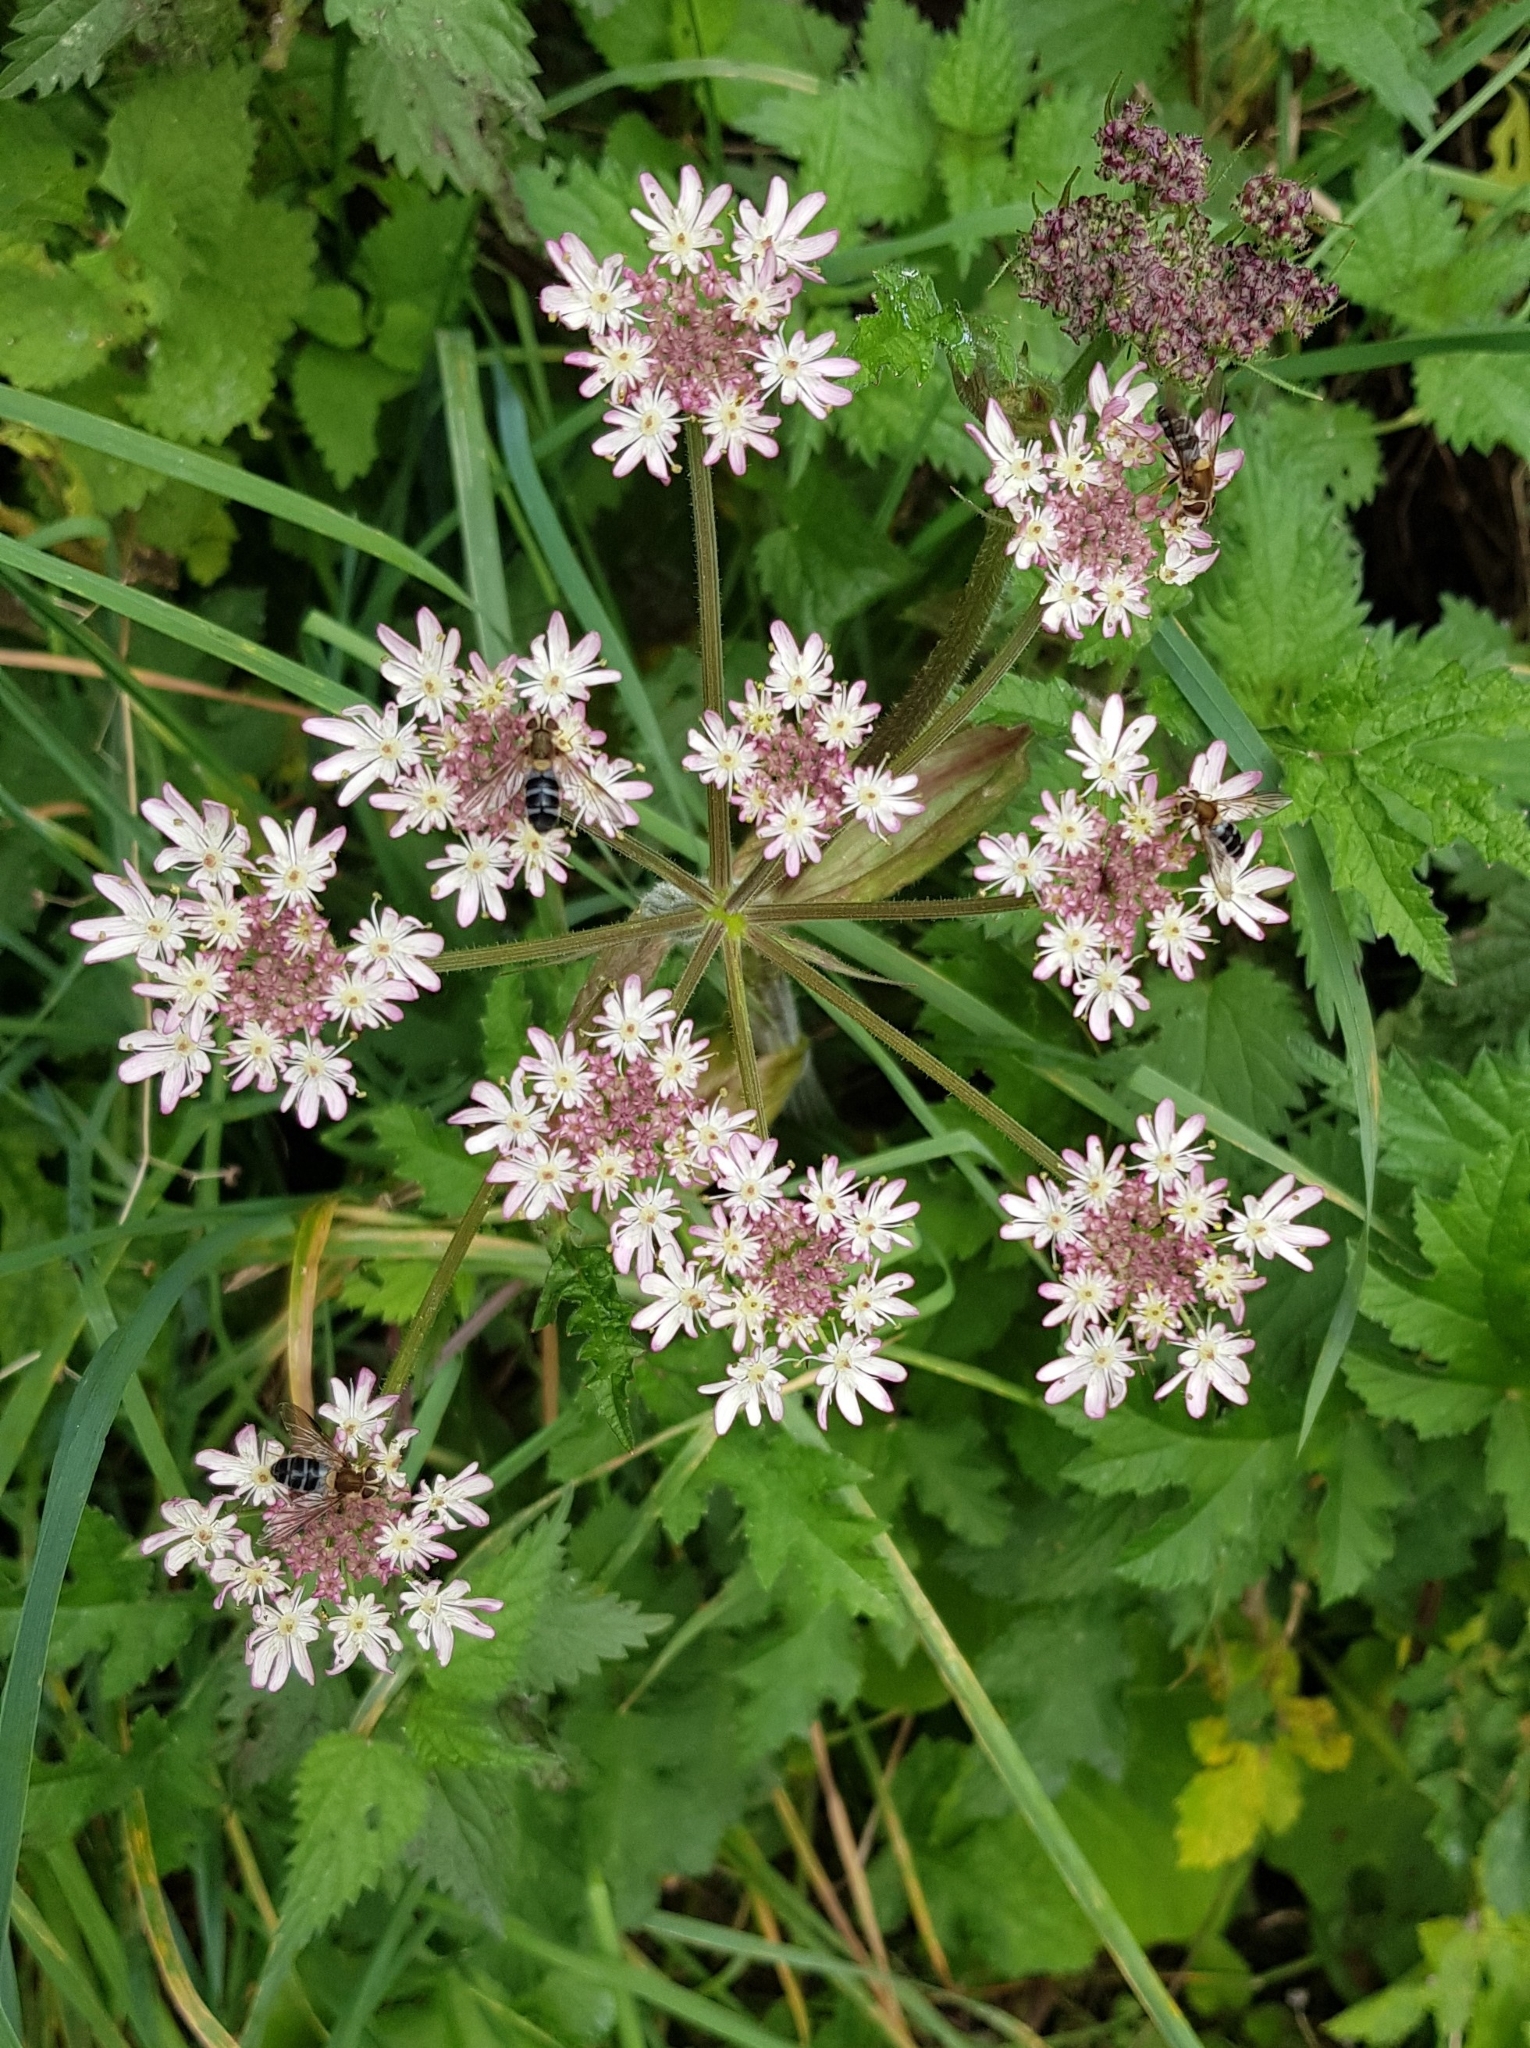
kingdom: Animalia
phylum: Arthropoda
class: Insecta
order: Diptera
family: Syrphidae
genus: Leucozona
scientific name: Leucozona glaucia
